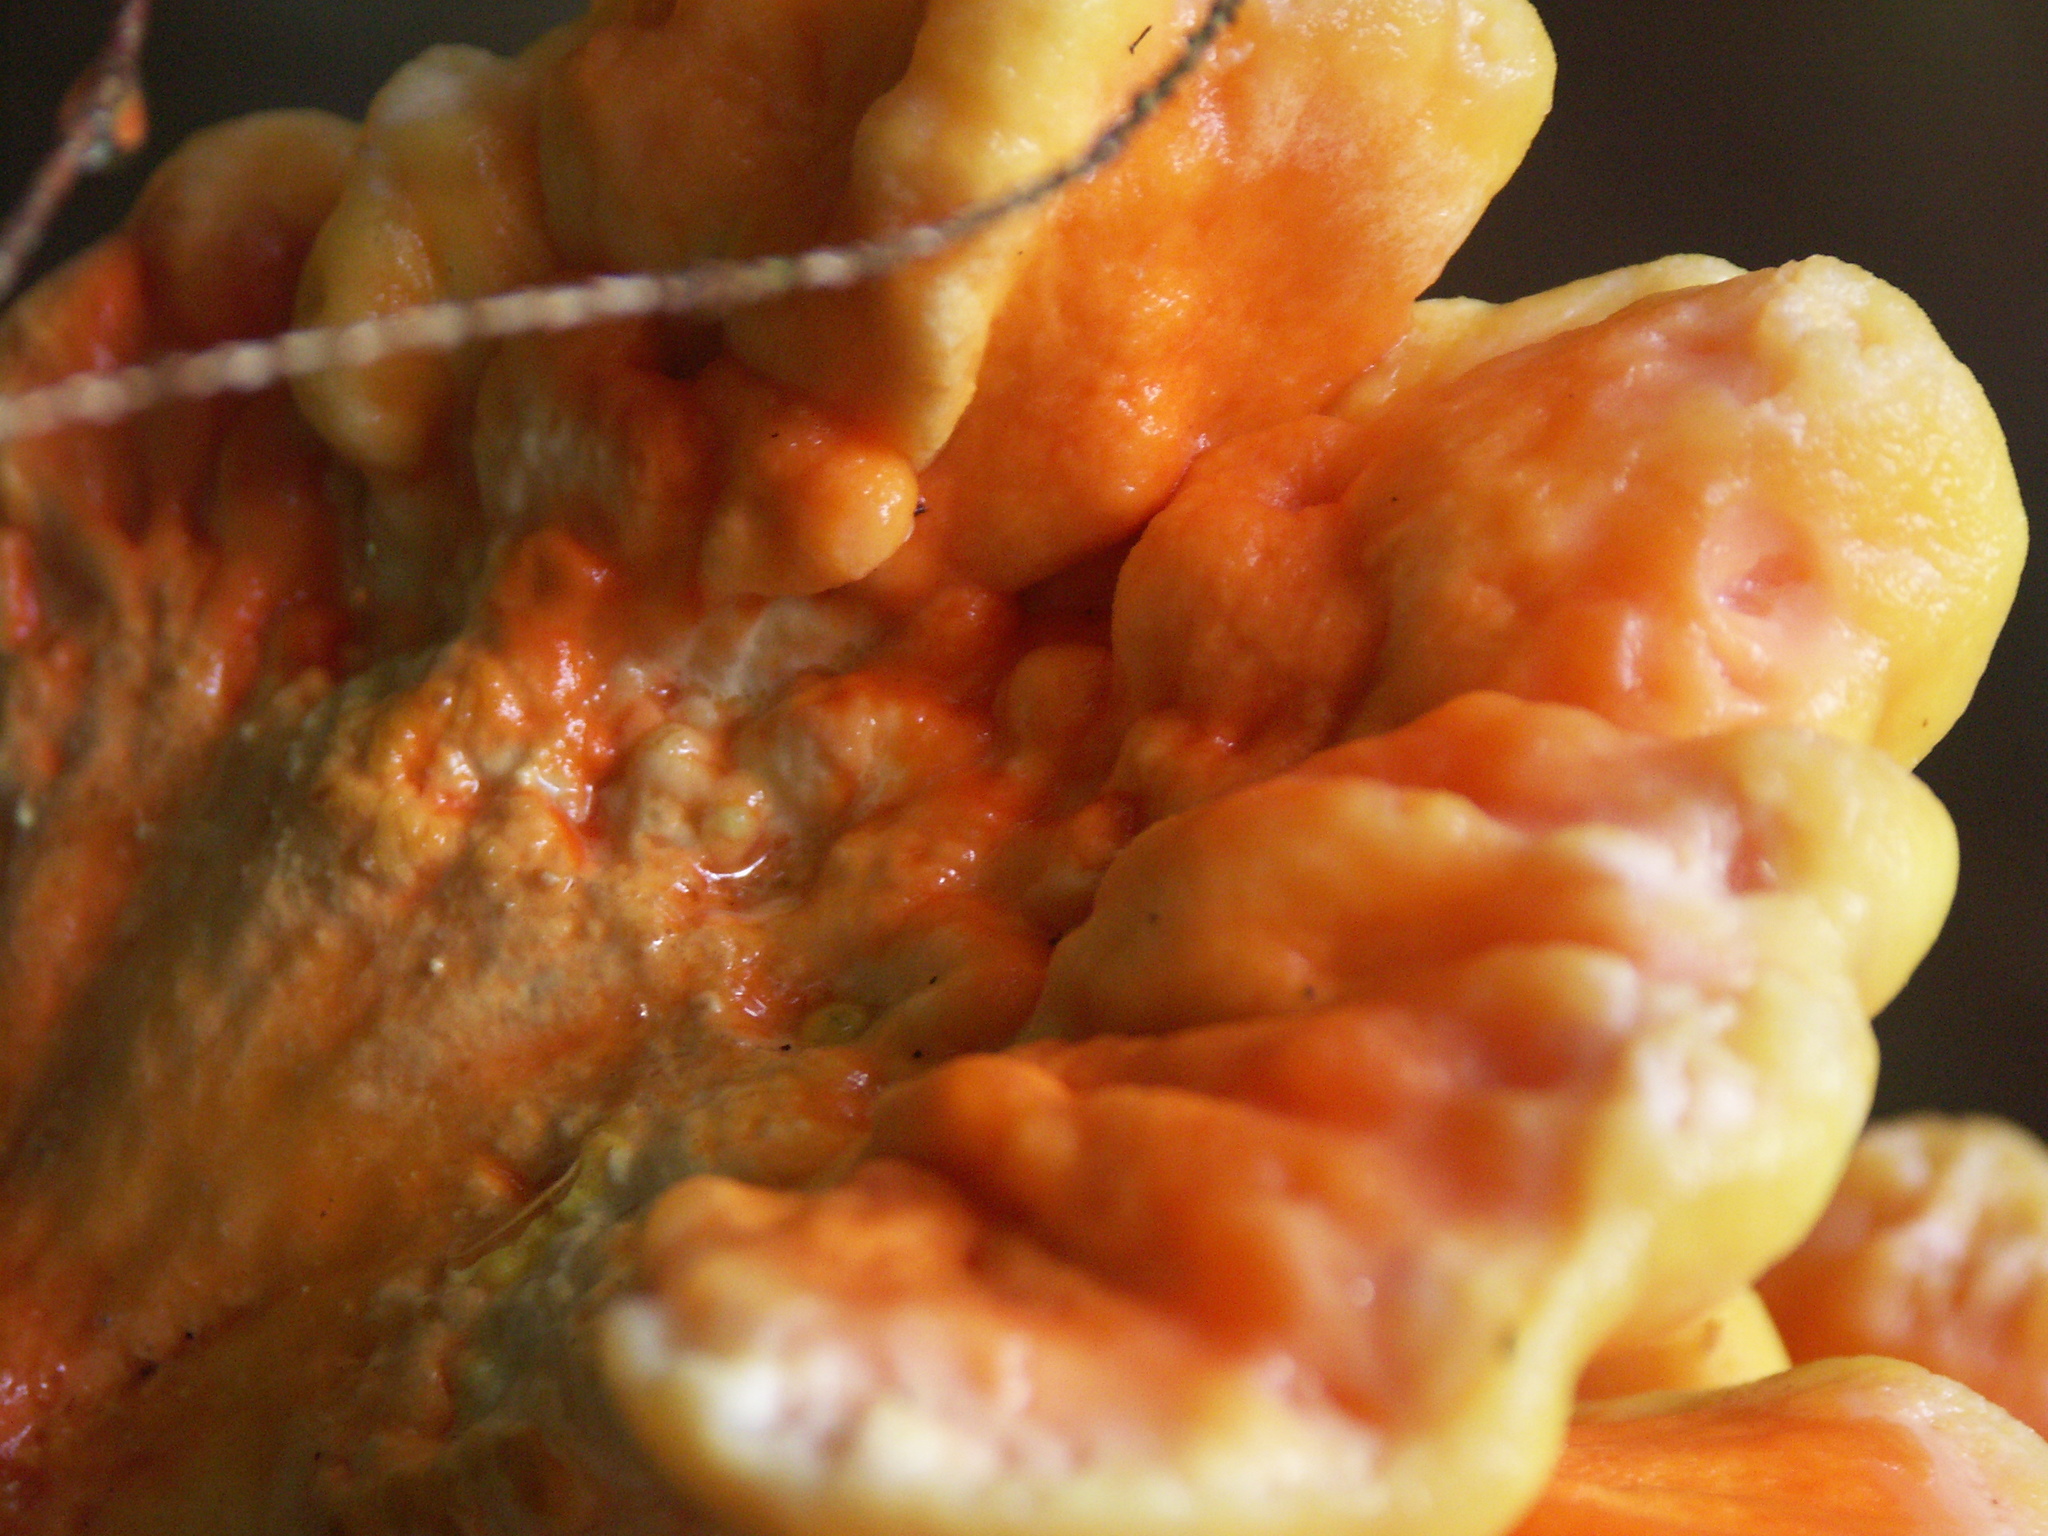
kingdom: Fungi
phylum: Basidiomycota
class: Agaricomycetes
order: Polyporales
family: Laetiporaceae
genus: Laetiporus
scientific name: Laetiporus conifericola
